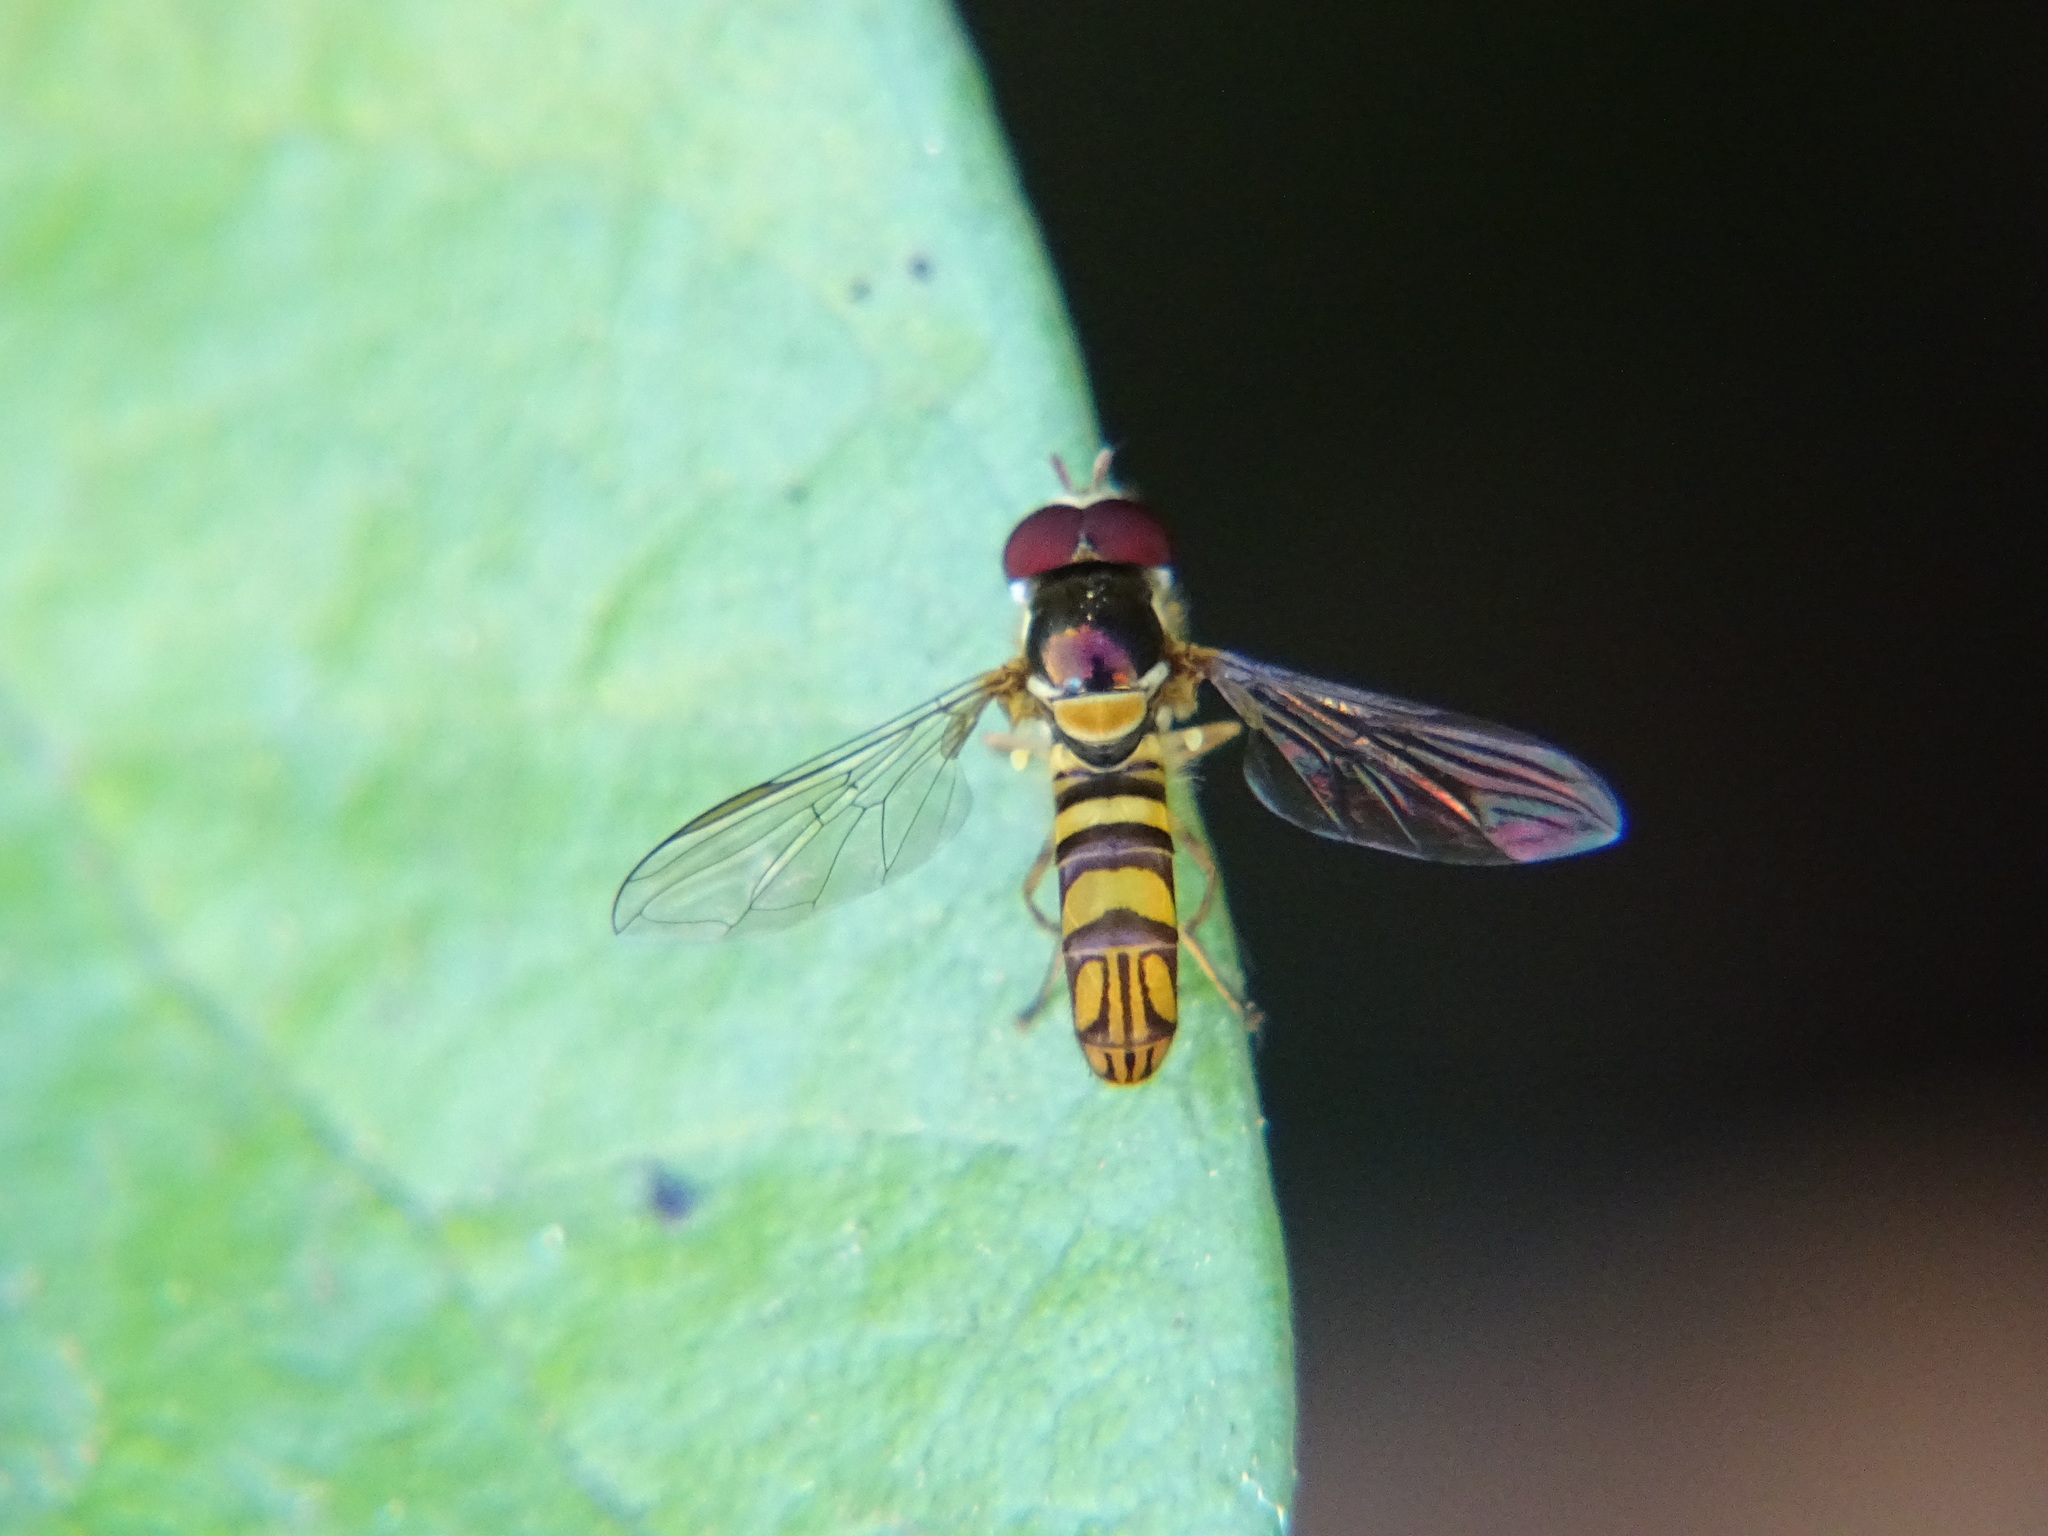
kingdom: Animalia
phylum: Arthropoda
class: Insecta
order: Diptera
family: Syrphidae
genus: Allograpta
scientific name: Allograpta obliqua
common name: Common oblique syrphid
